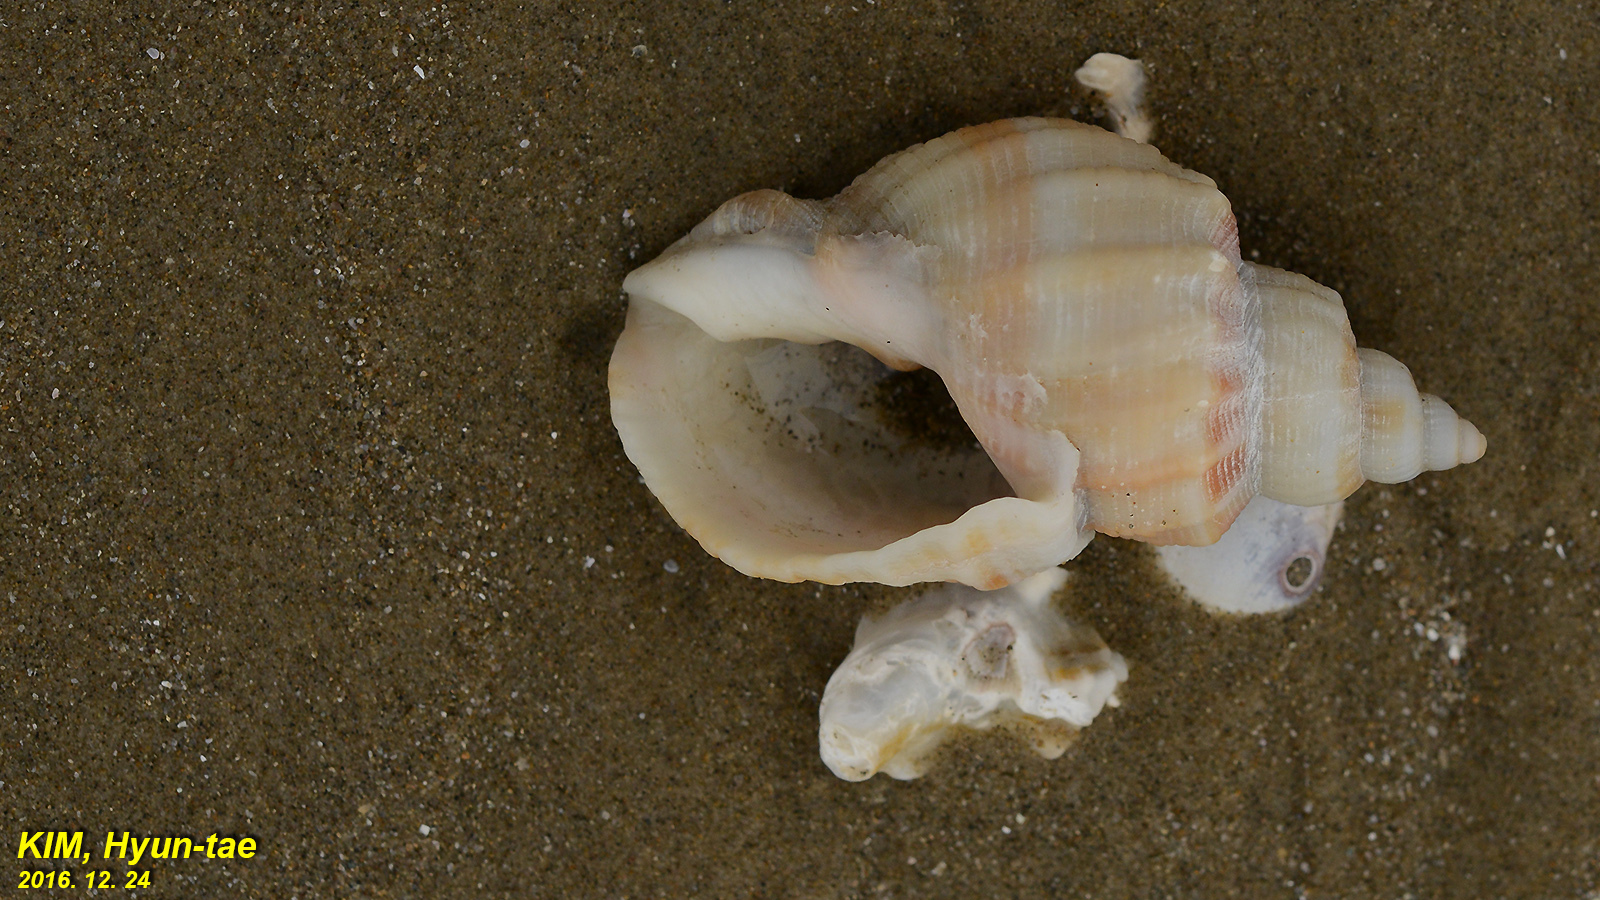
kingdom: Animalia
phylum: Mollusca
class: Gastropoda
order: Neogastropoda
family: Cancellariidae
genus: Sydaphera
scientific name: Sydaphera spengleriana
